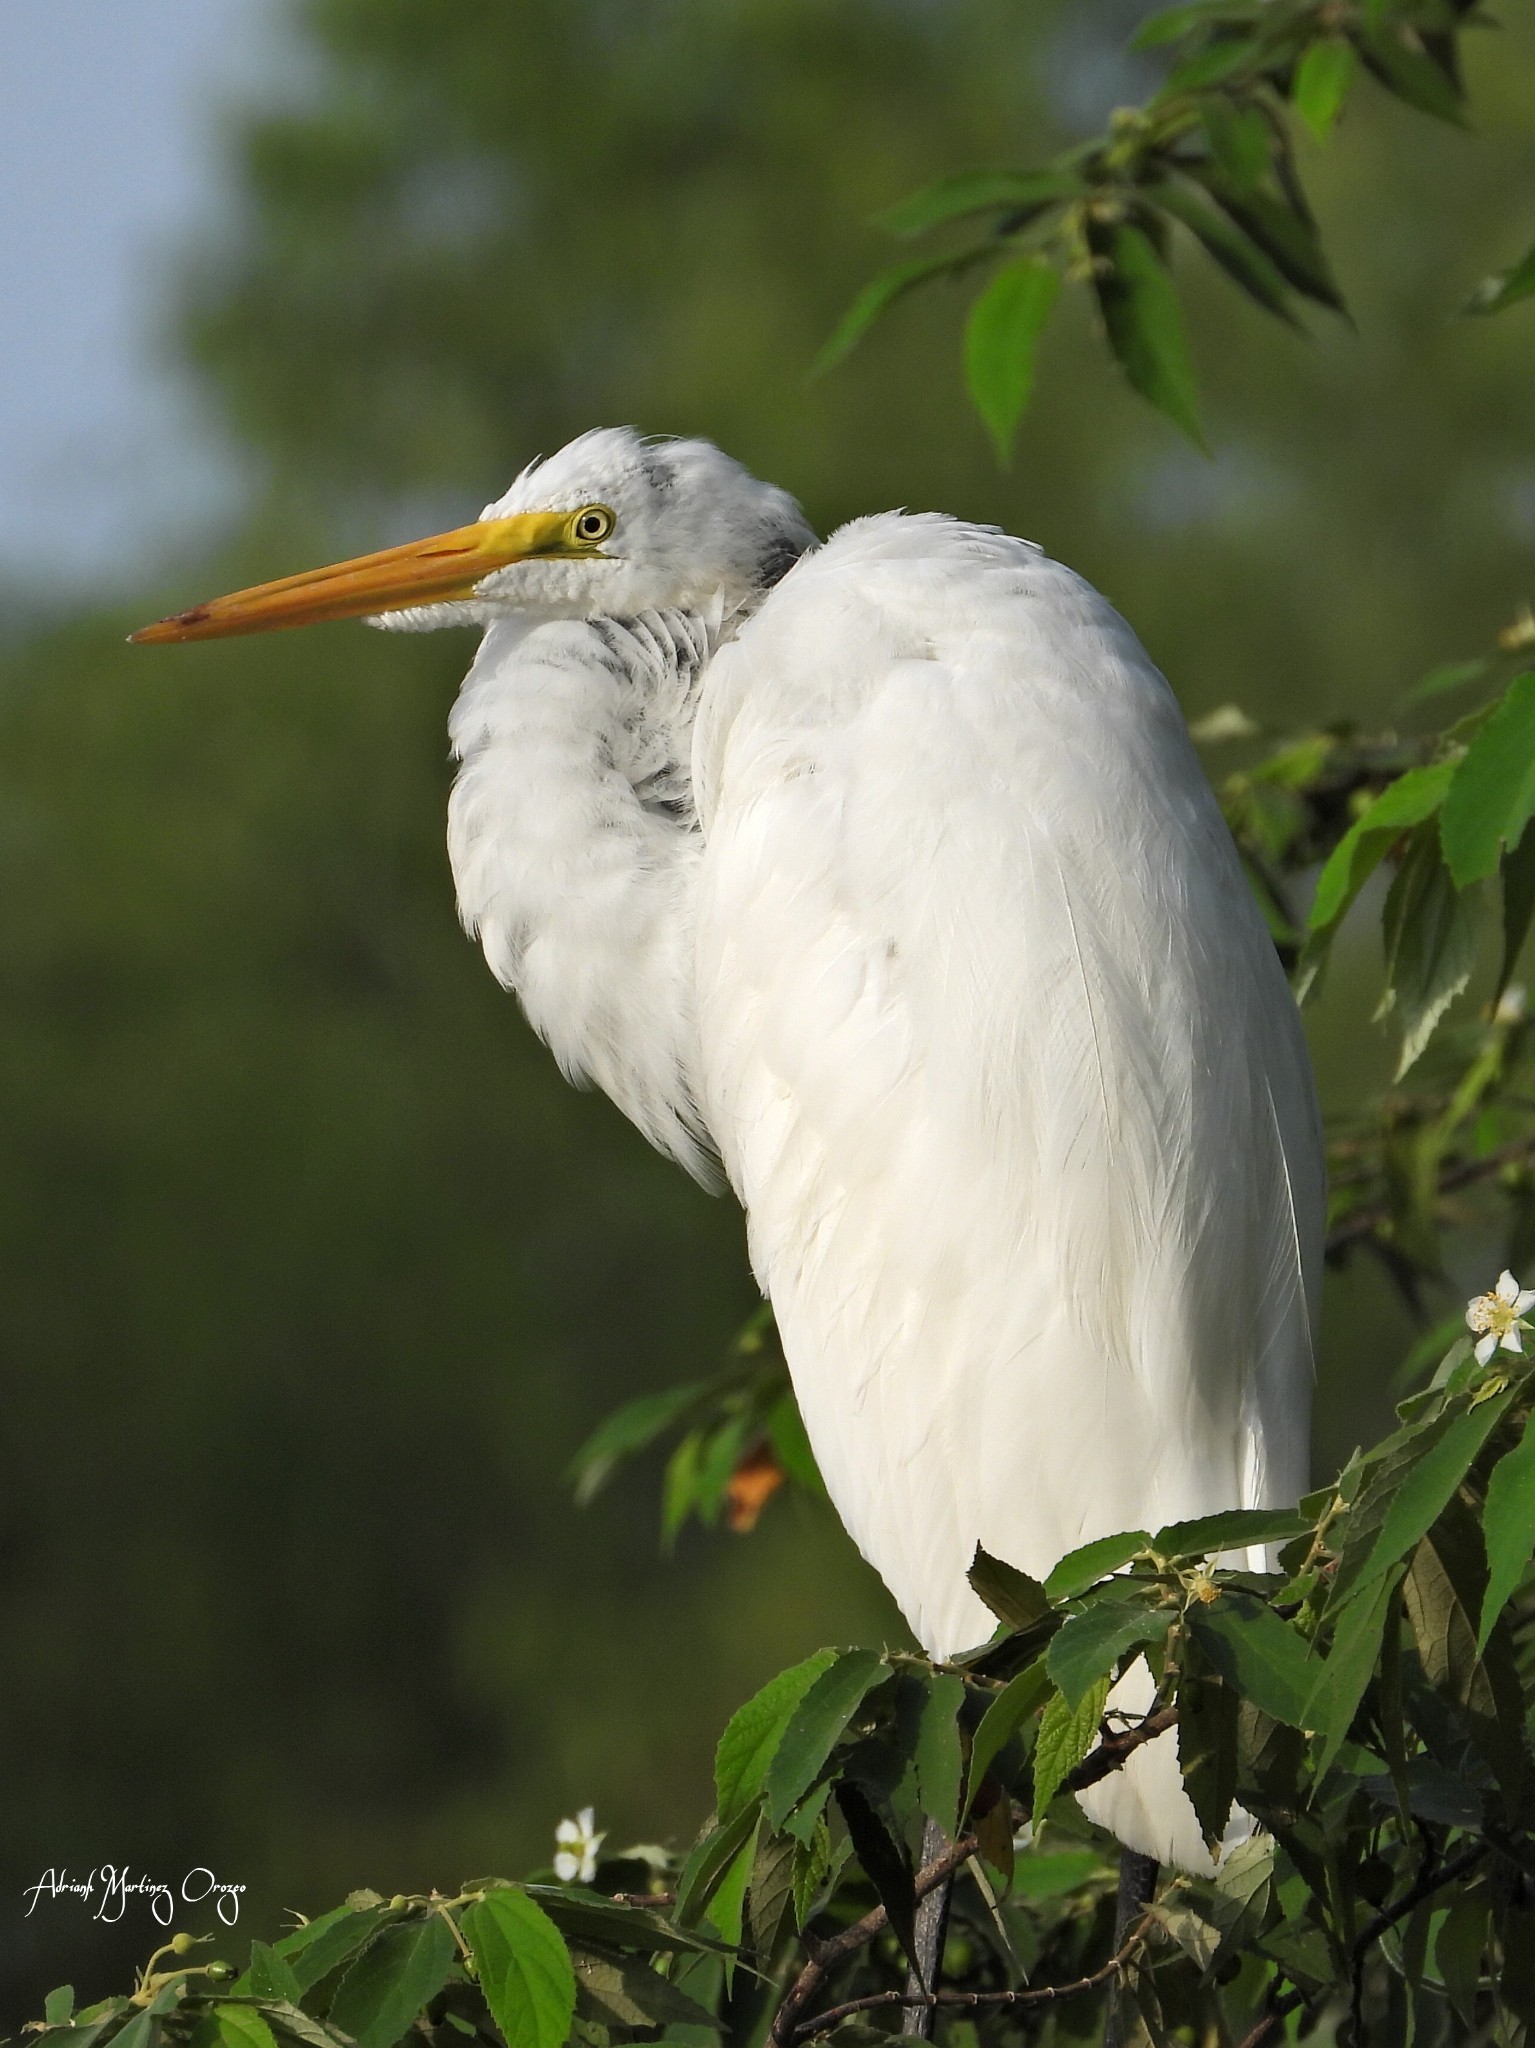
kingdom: Animalia
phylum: Chordata
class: Aves
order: Pelecaniformes
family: Ardeidae
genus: Ardea
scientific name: Ardea alba
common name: Great egret
